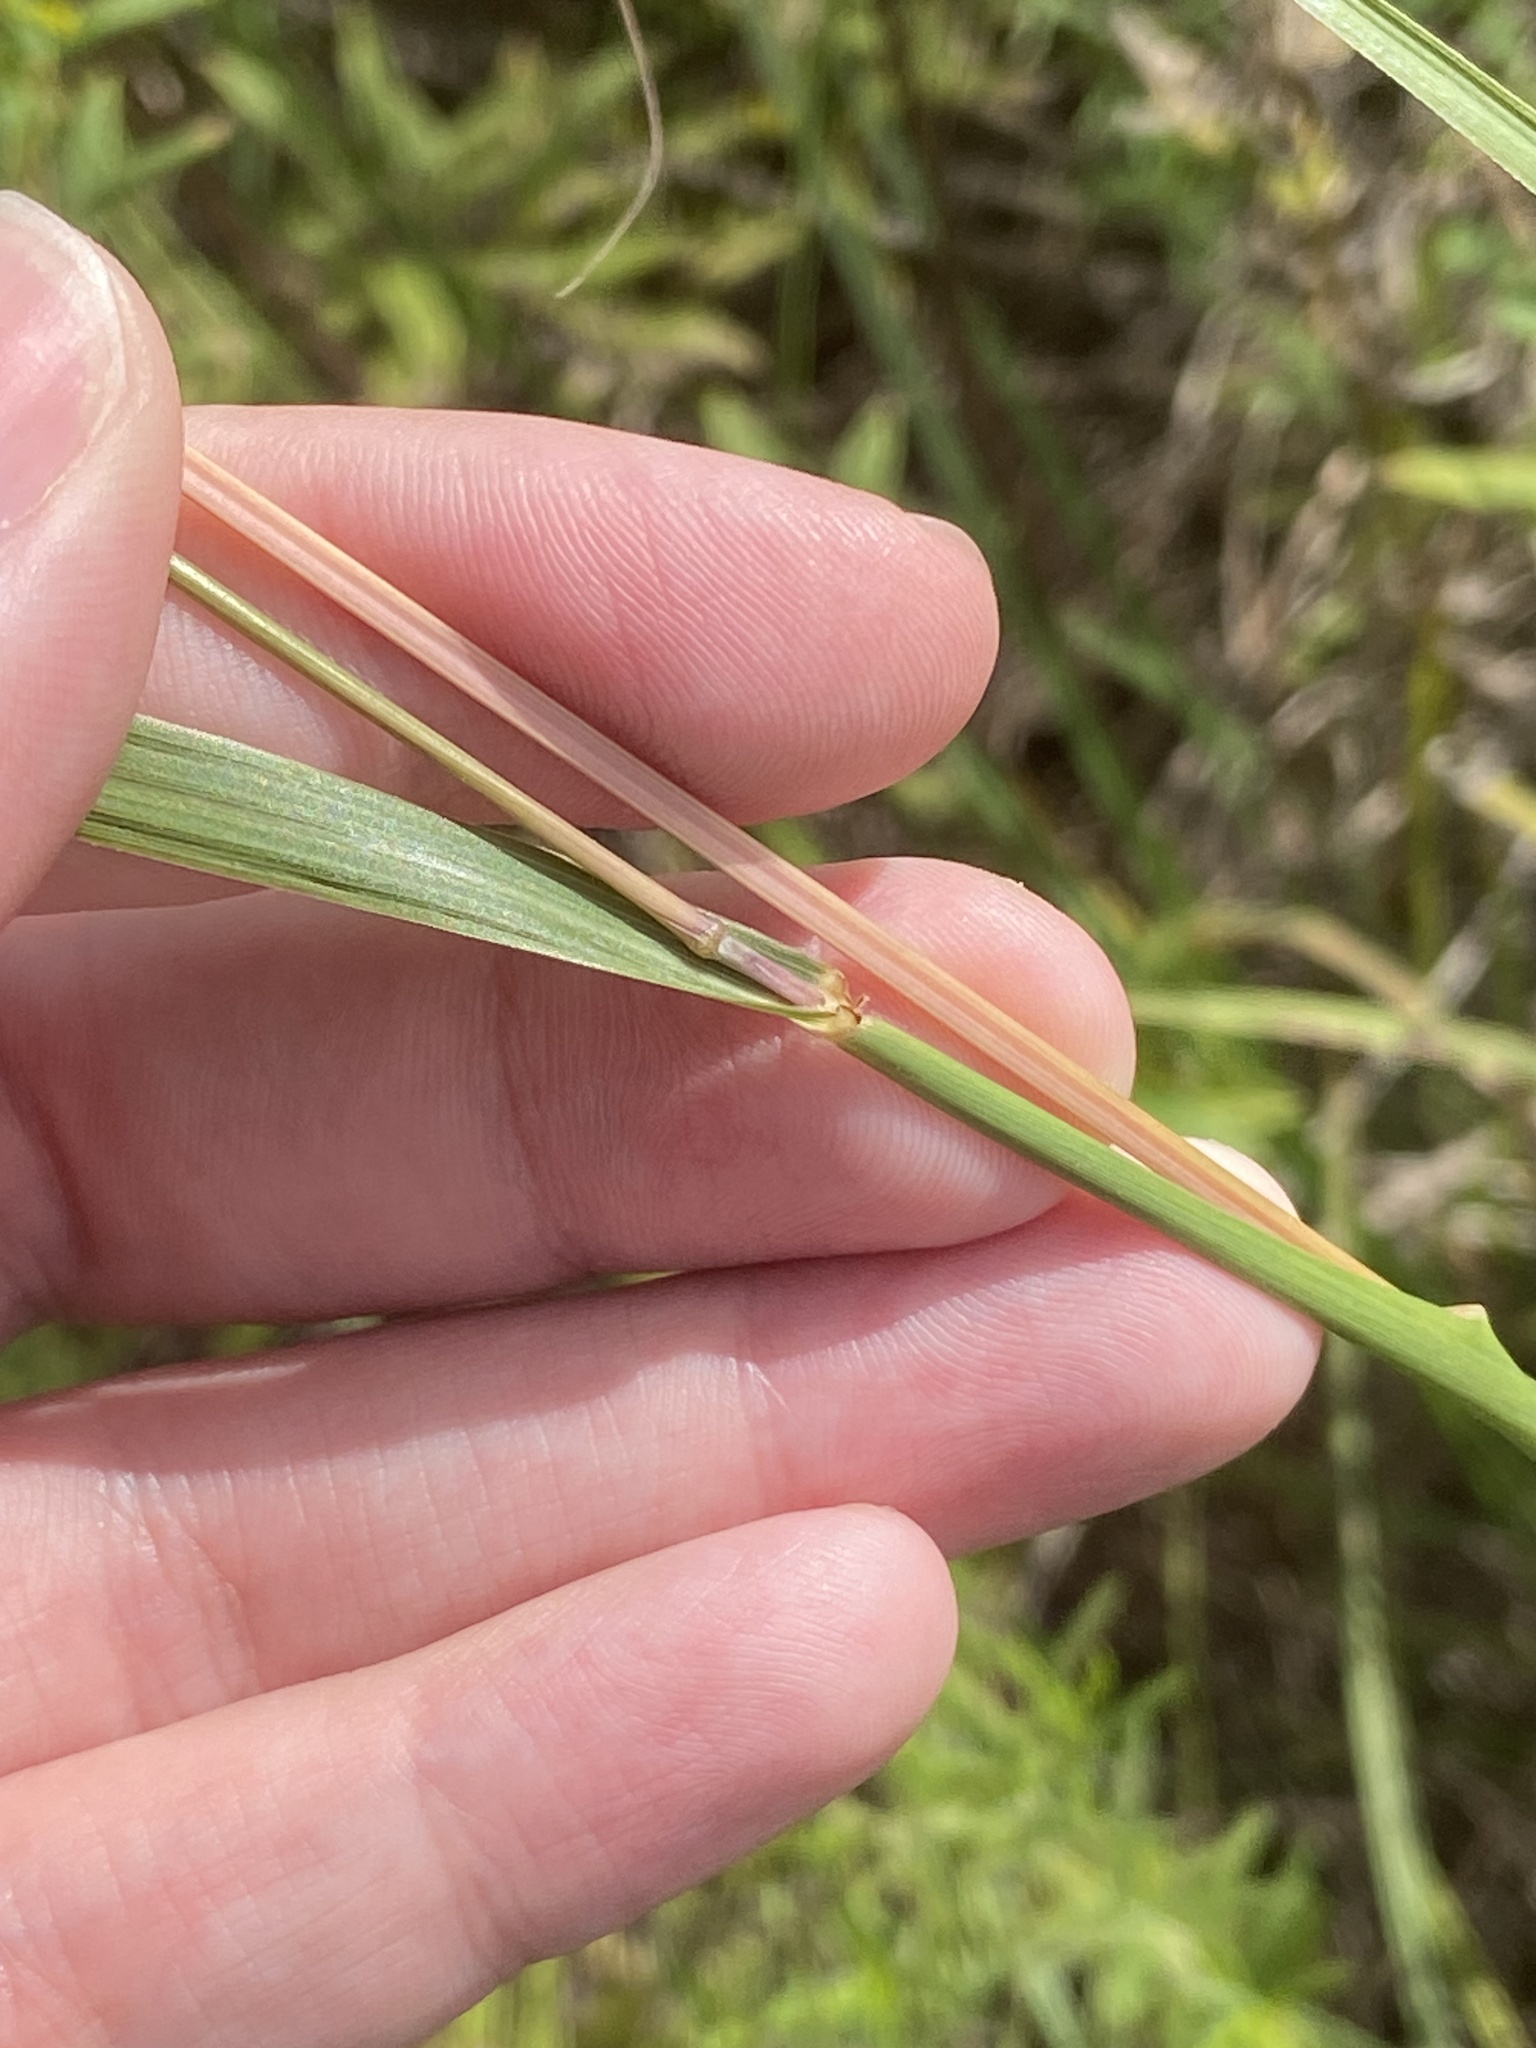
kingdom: Plantae
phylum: Tracheophyta
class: Liliopsida
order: Poales
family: Poaceae
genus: Andropogon
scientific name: Andropogon gerardi
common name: Big bluestem
